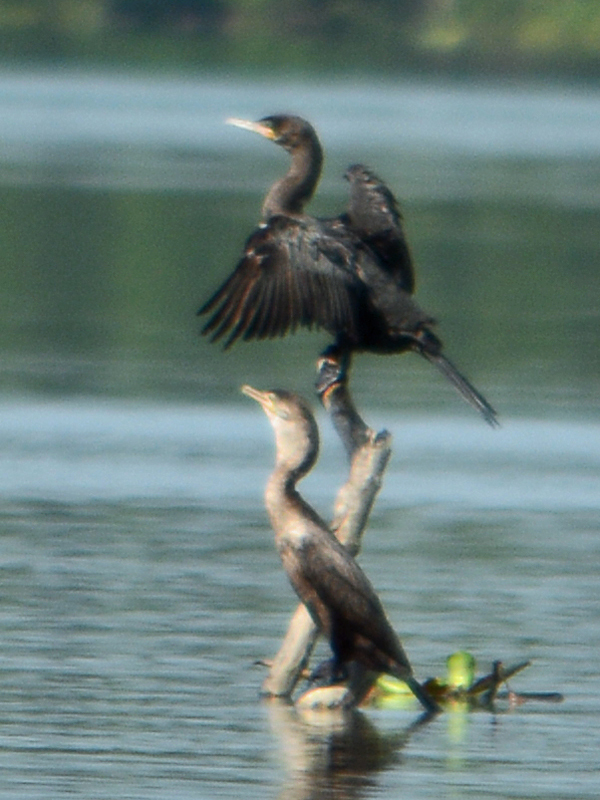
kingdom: Animalia
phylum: Chordata
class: Aves
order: Suliformes
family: Phalacrocoracidae
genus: Phalacrocorax
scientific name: Phalacrocorax brasilianus
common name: Neotropic cormorant
